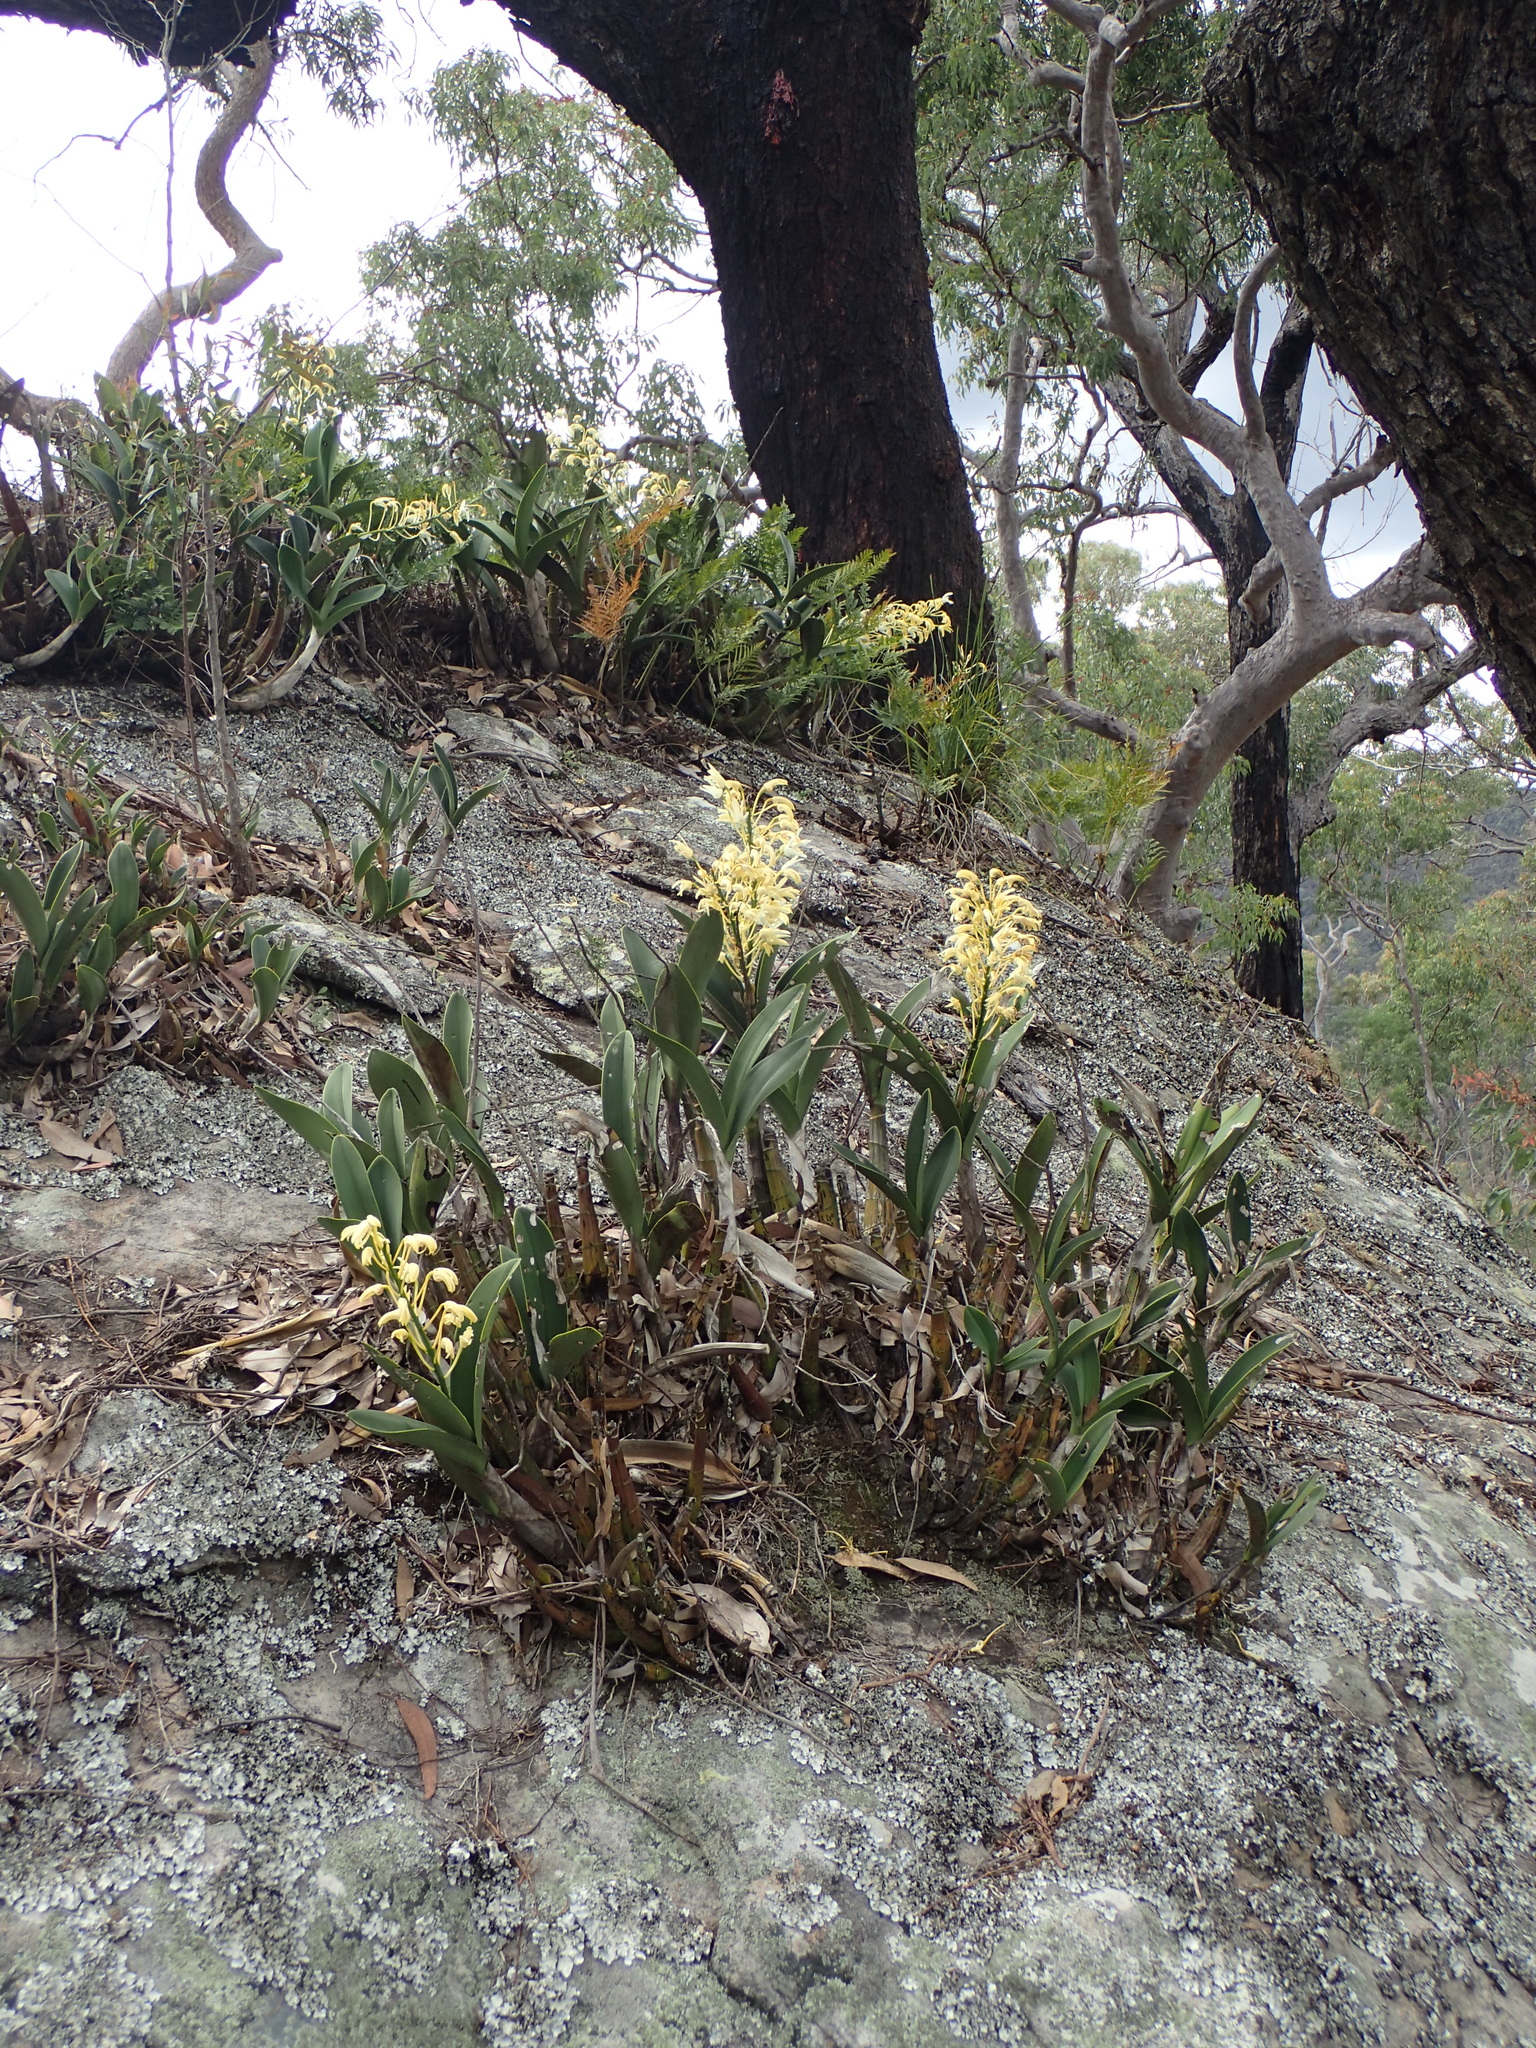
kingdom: Plantae
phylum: Tracheophyta
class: Liliopsida
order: Asparagales
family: Orchidaceae
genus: Dendrobium
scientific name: Dendrobium speciosum
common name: Rock-lily
